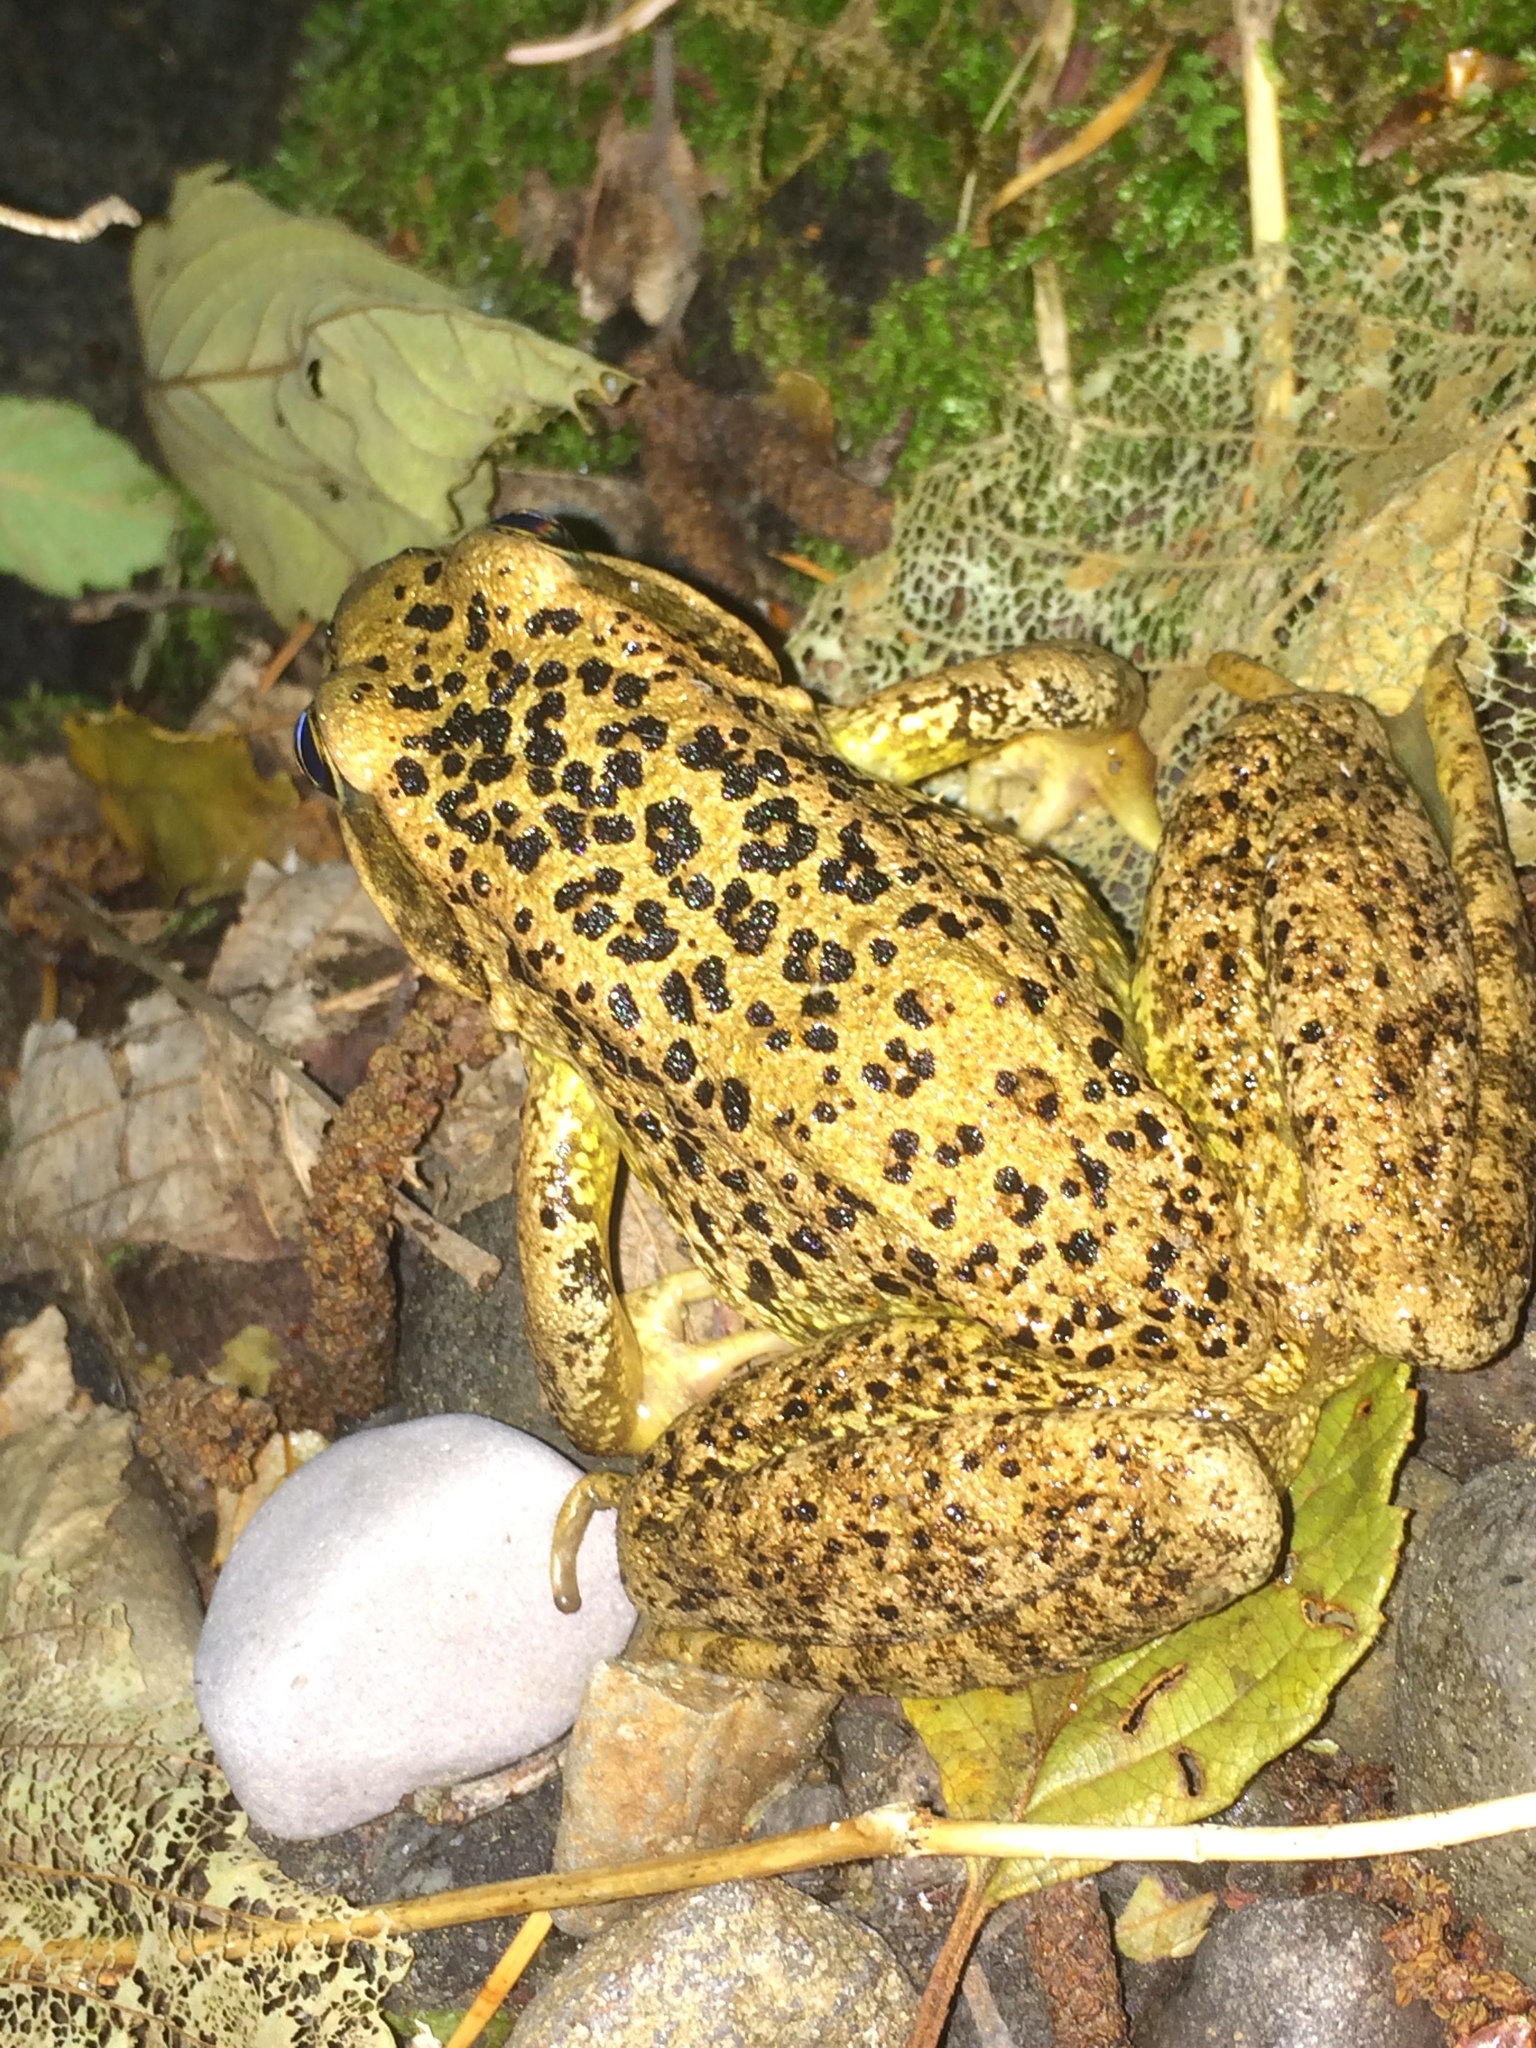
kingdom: Animalia
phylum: Chordata
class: Amphibia
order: Anura
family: Ranidae
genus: Rana
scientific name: Rana cascadae
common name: Cascades frog
